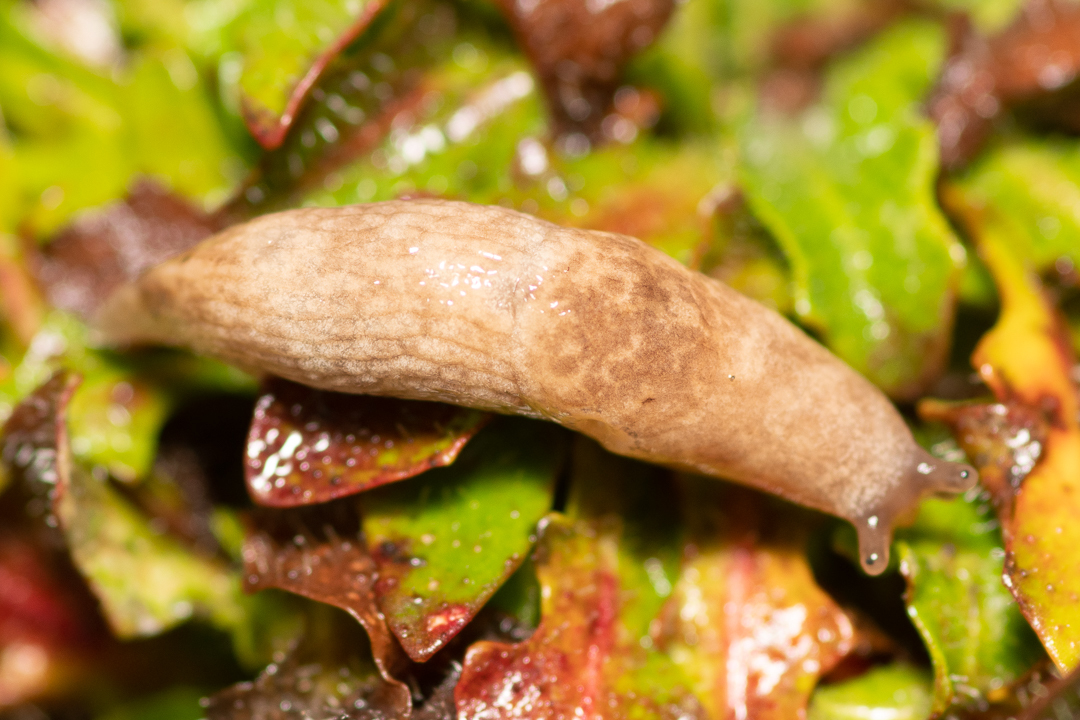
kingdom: Animalia
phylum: Mollusca
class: Gastropoda
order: Stylommatophora
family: Agriolimacidae
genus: Deroceras
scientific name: Deroceras reticulatum
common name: Gray field slug
